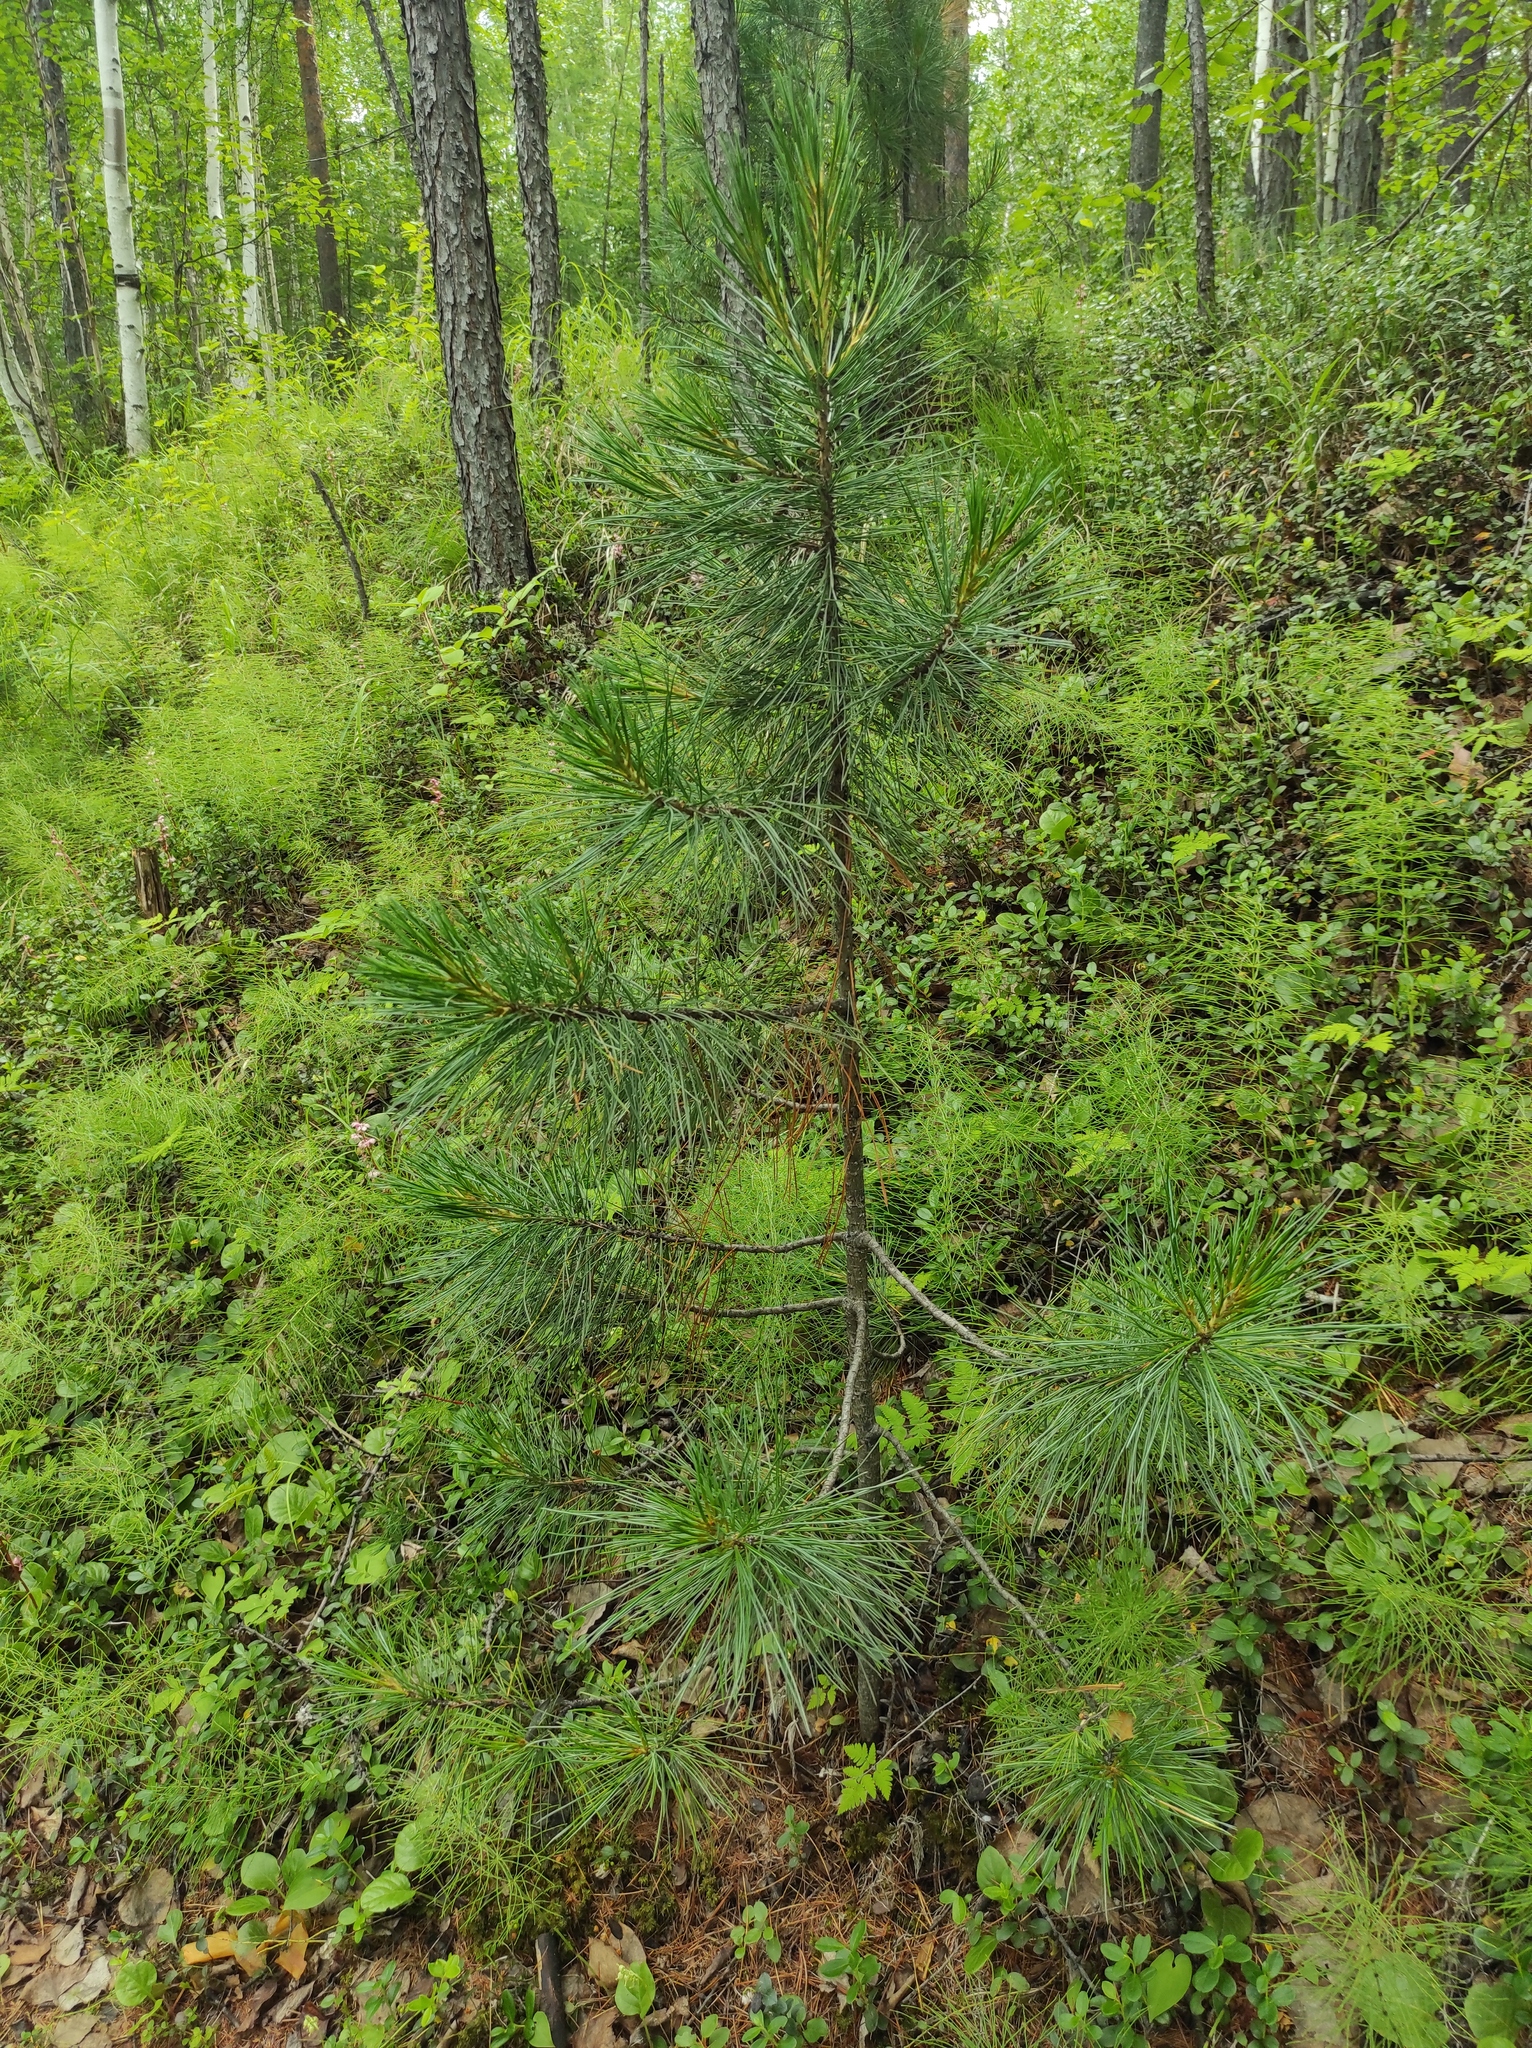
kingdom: Plantae
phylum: Tracheophyta
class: Pinopsida
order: Pinales
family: Pinaceae
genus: Pinus
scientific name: Pinus sibirica
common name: Siberian pine
